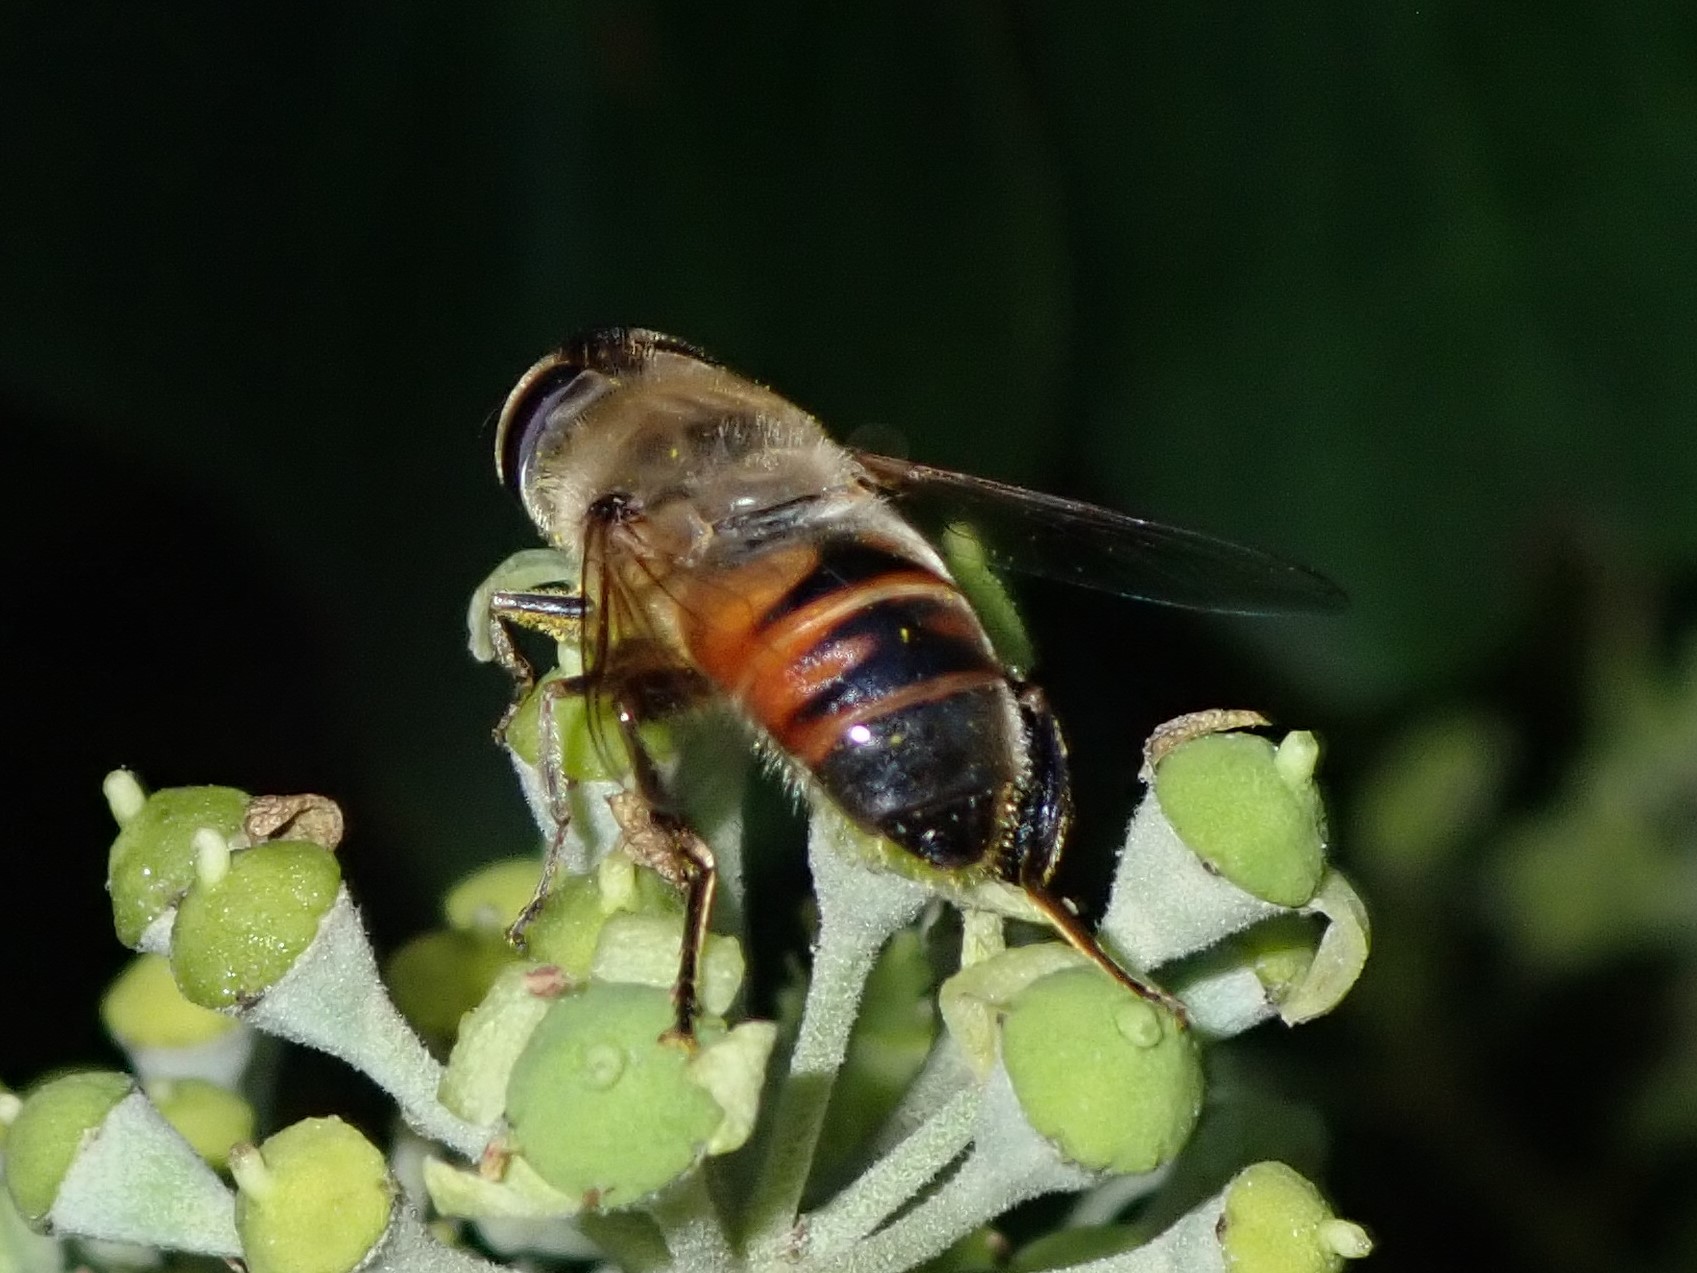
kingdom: Animalia
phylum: Arthropoda
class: Insecta
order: Diptera
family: Syrphidae
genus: Eristalis
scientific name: Eristalis tenax
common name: Drone fly
